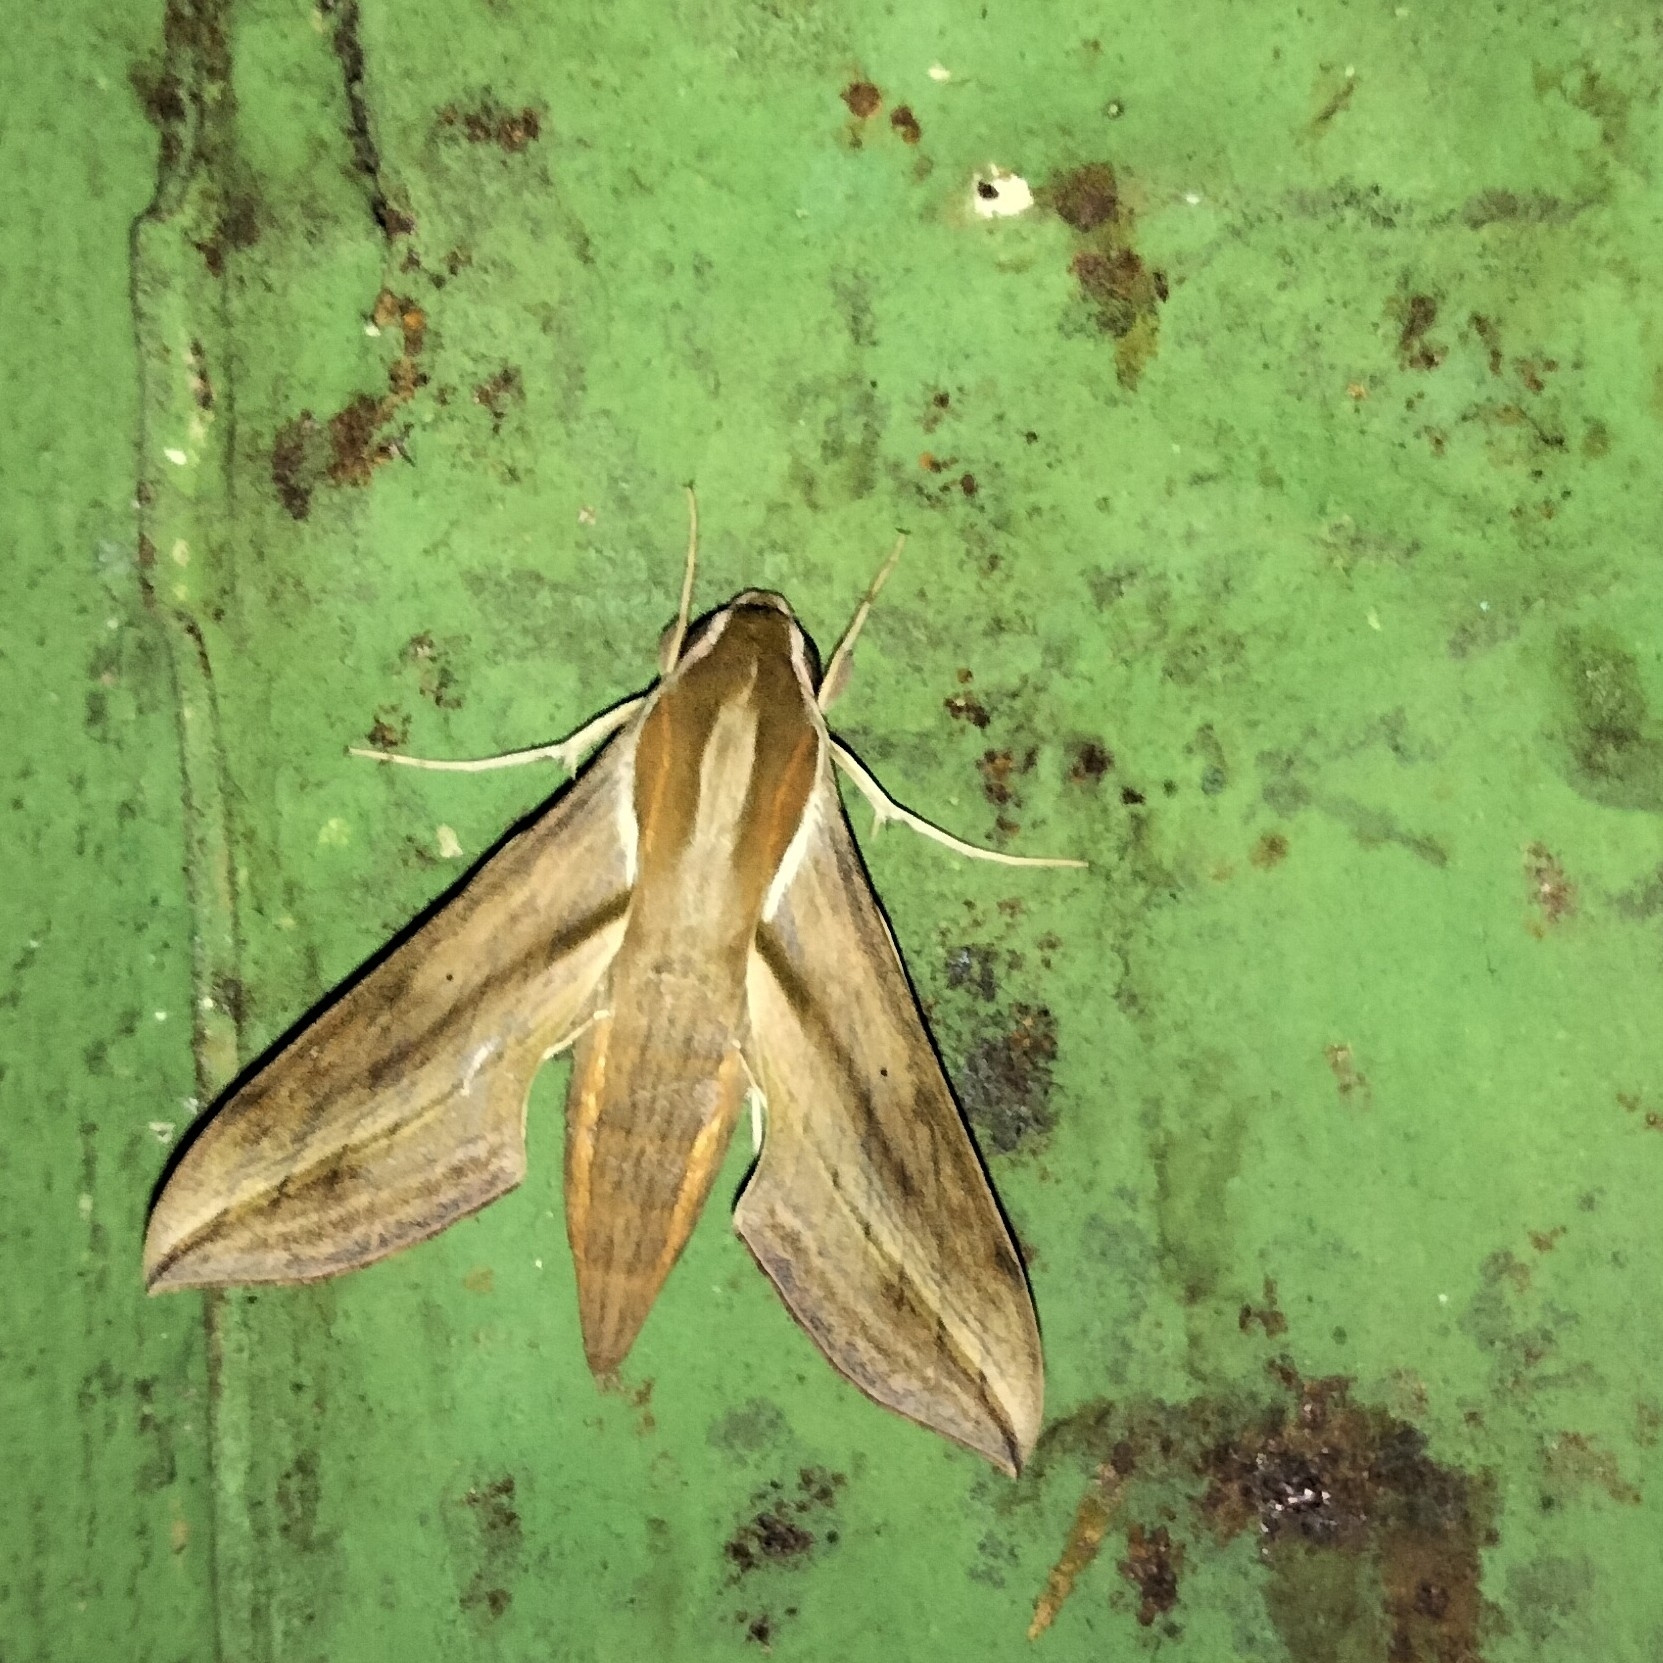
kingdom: Animalia
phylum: Arthropoda
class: Insecta
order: Lepidoptera
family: Sphingidae
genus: Hippotion
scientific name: Hippotion rosetta
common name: Vine hawk moth
